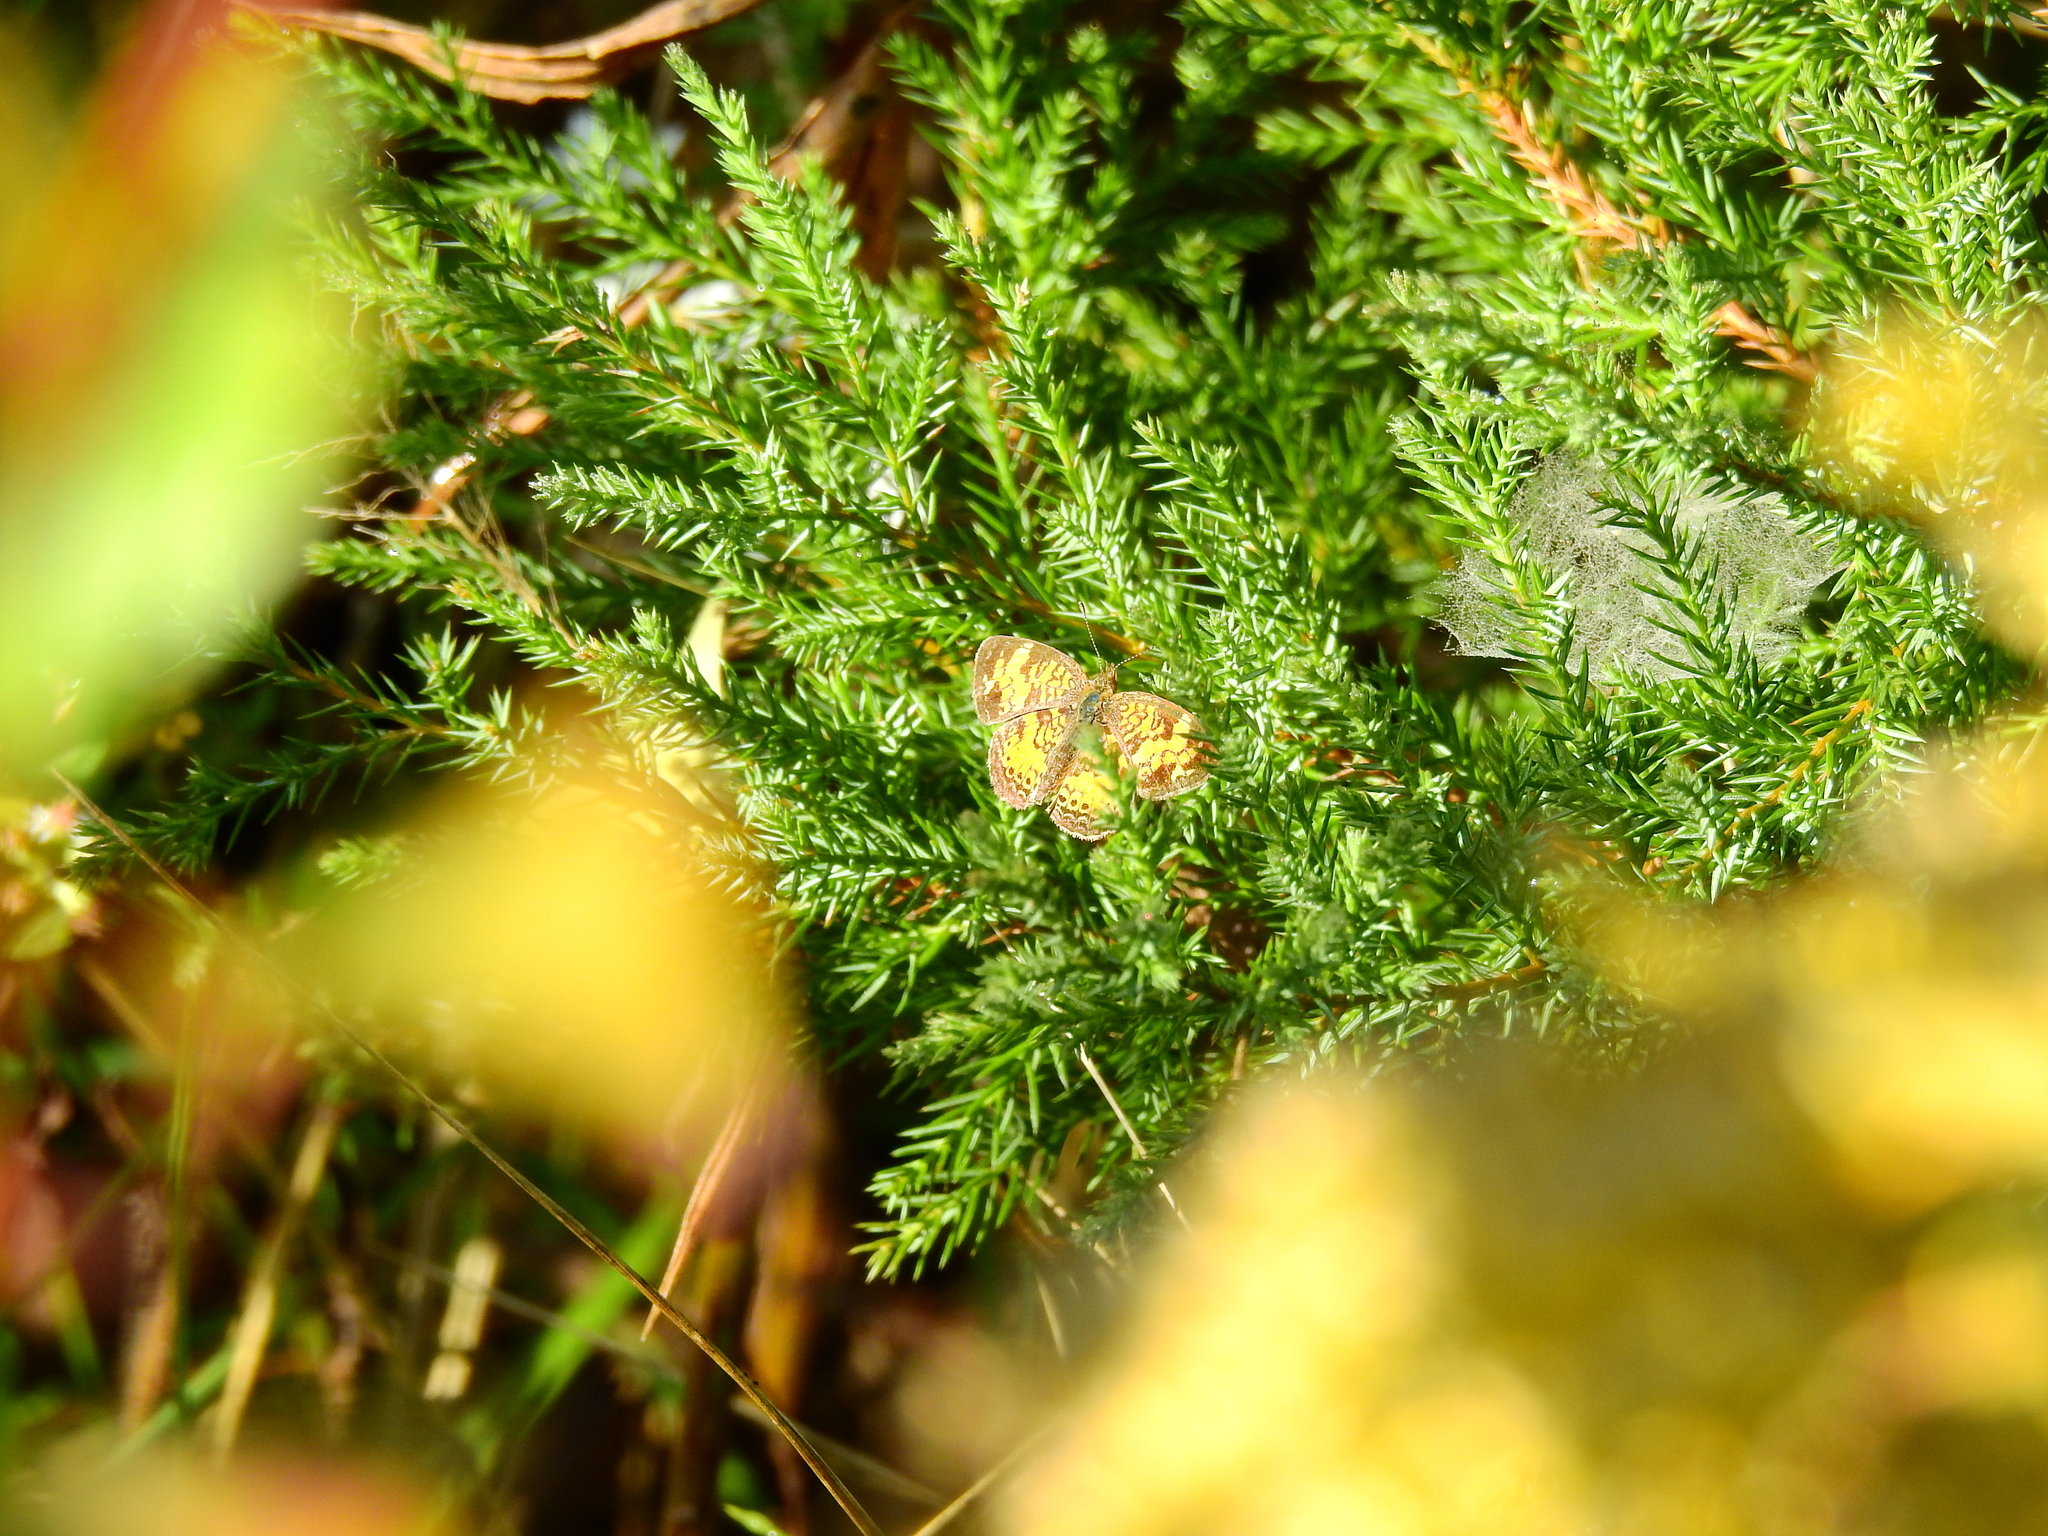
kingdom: Animalia
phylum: Arthropoda
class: Insecta
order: Lepidoptera
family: Nymphalidae
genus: Phyciodes
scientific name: Phyciodes tharos
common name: Pearl crescent
